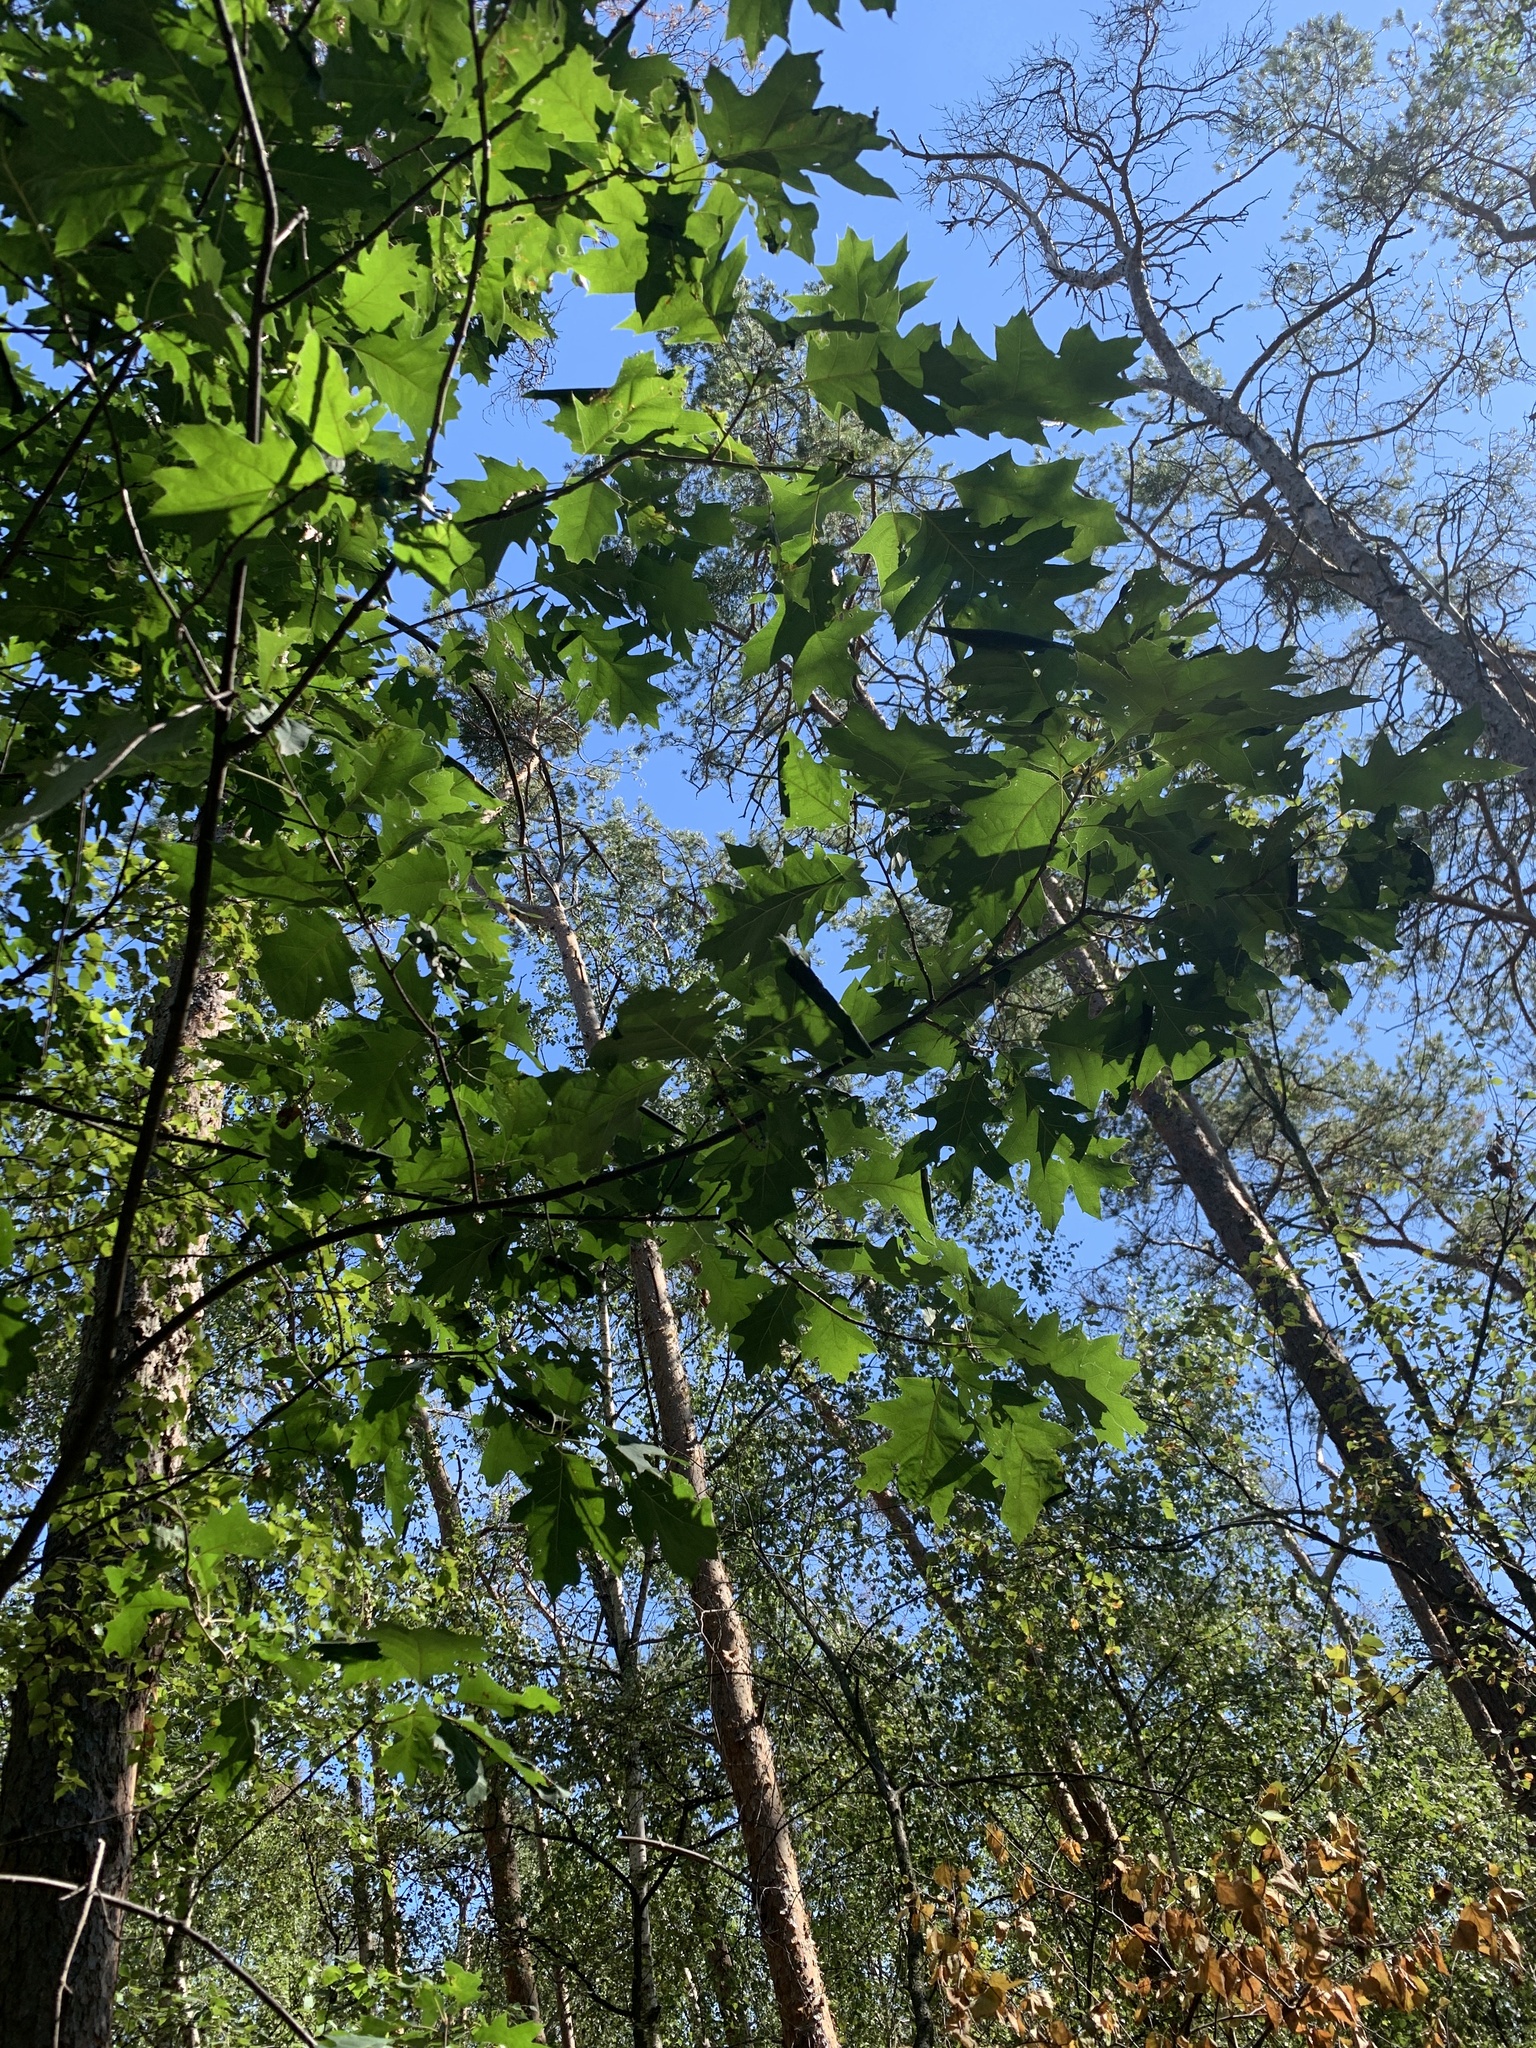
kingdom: Plantae
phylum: Tracheophyta
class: Magnoliopsida
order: Fagales
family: Fagaceae
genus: Quercus
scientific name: Quercus rubra
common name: Red oak
